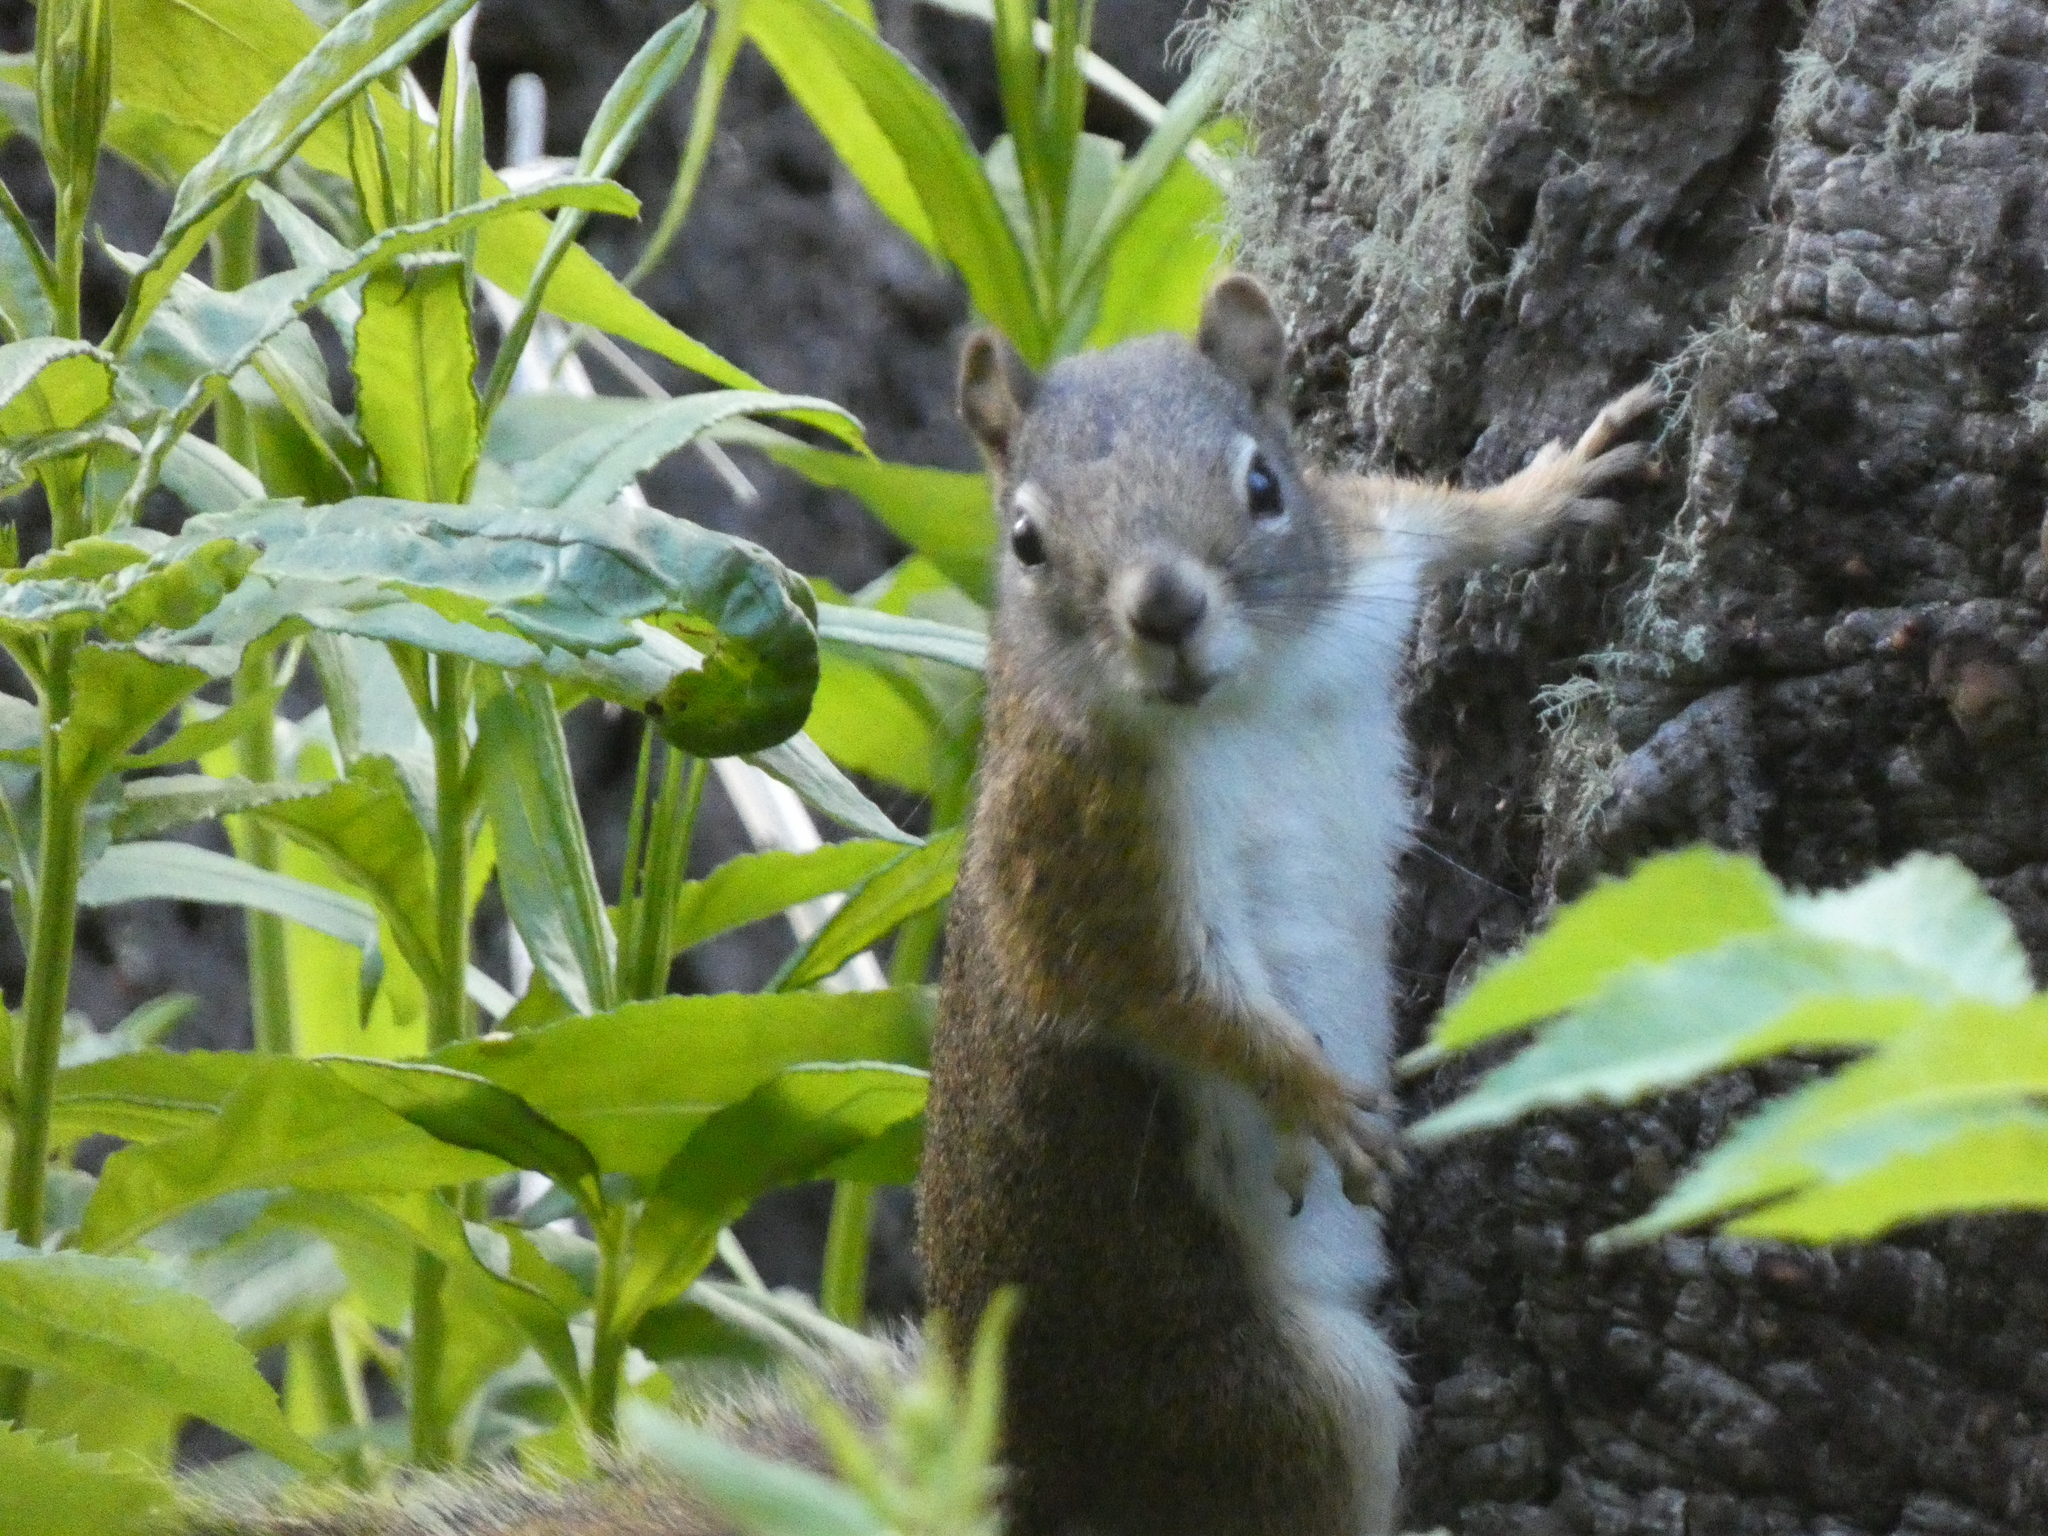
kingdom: Animalia
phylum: Chordata
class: Mammalia
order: Rodentia
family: Sciuridae
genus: Tamiasciurus
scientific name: Tamiasciurus hudsonicus
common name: Red squirrel
